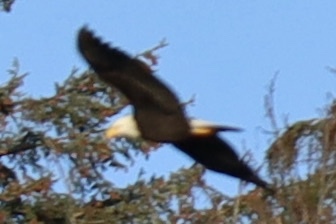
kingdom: Animalia
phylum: Chordata
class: Aves
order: Accipitriformes
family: Accipitridae
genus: Haliaeetus
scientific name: Haliaeetus leucocephalus
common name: Bald eagle
